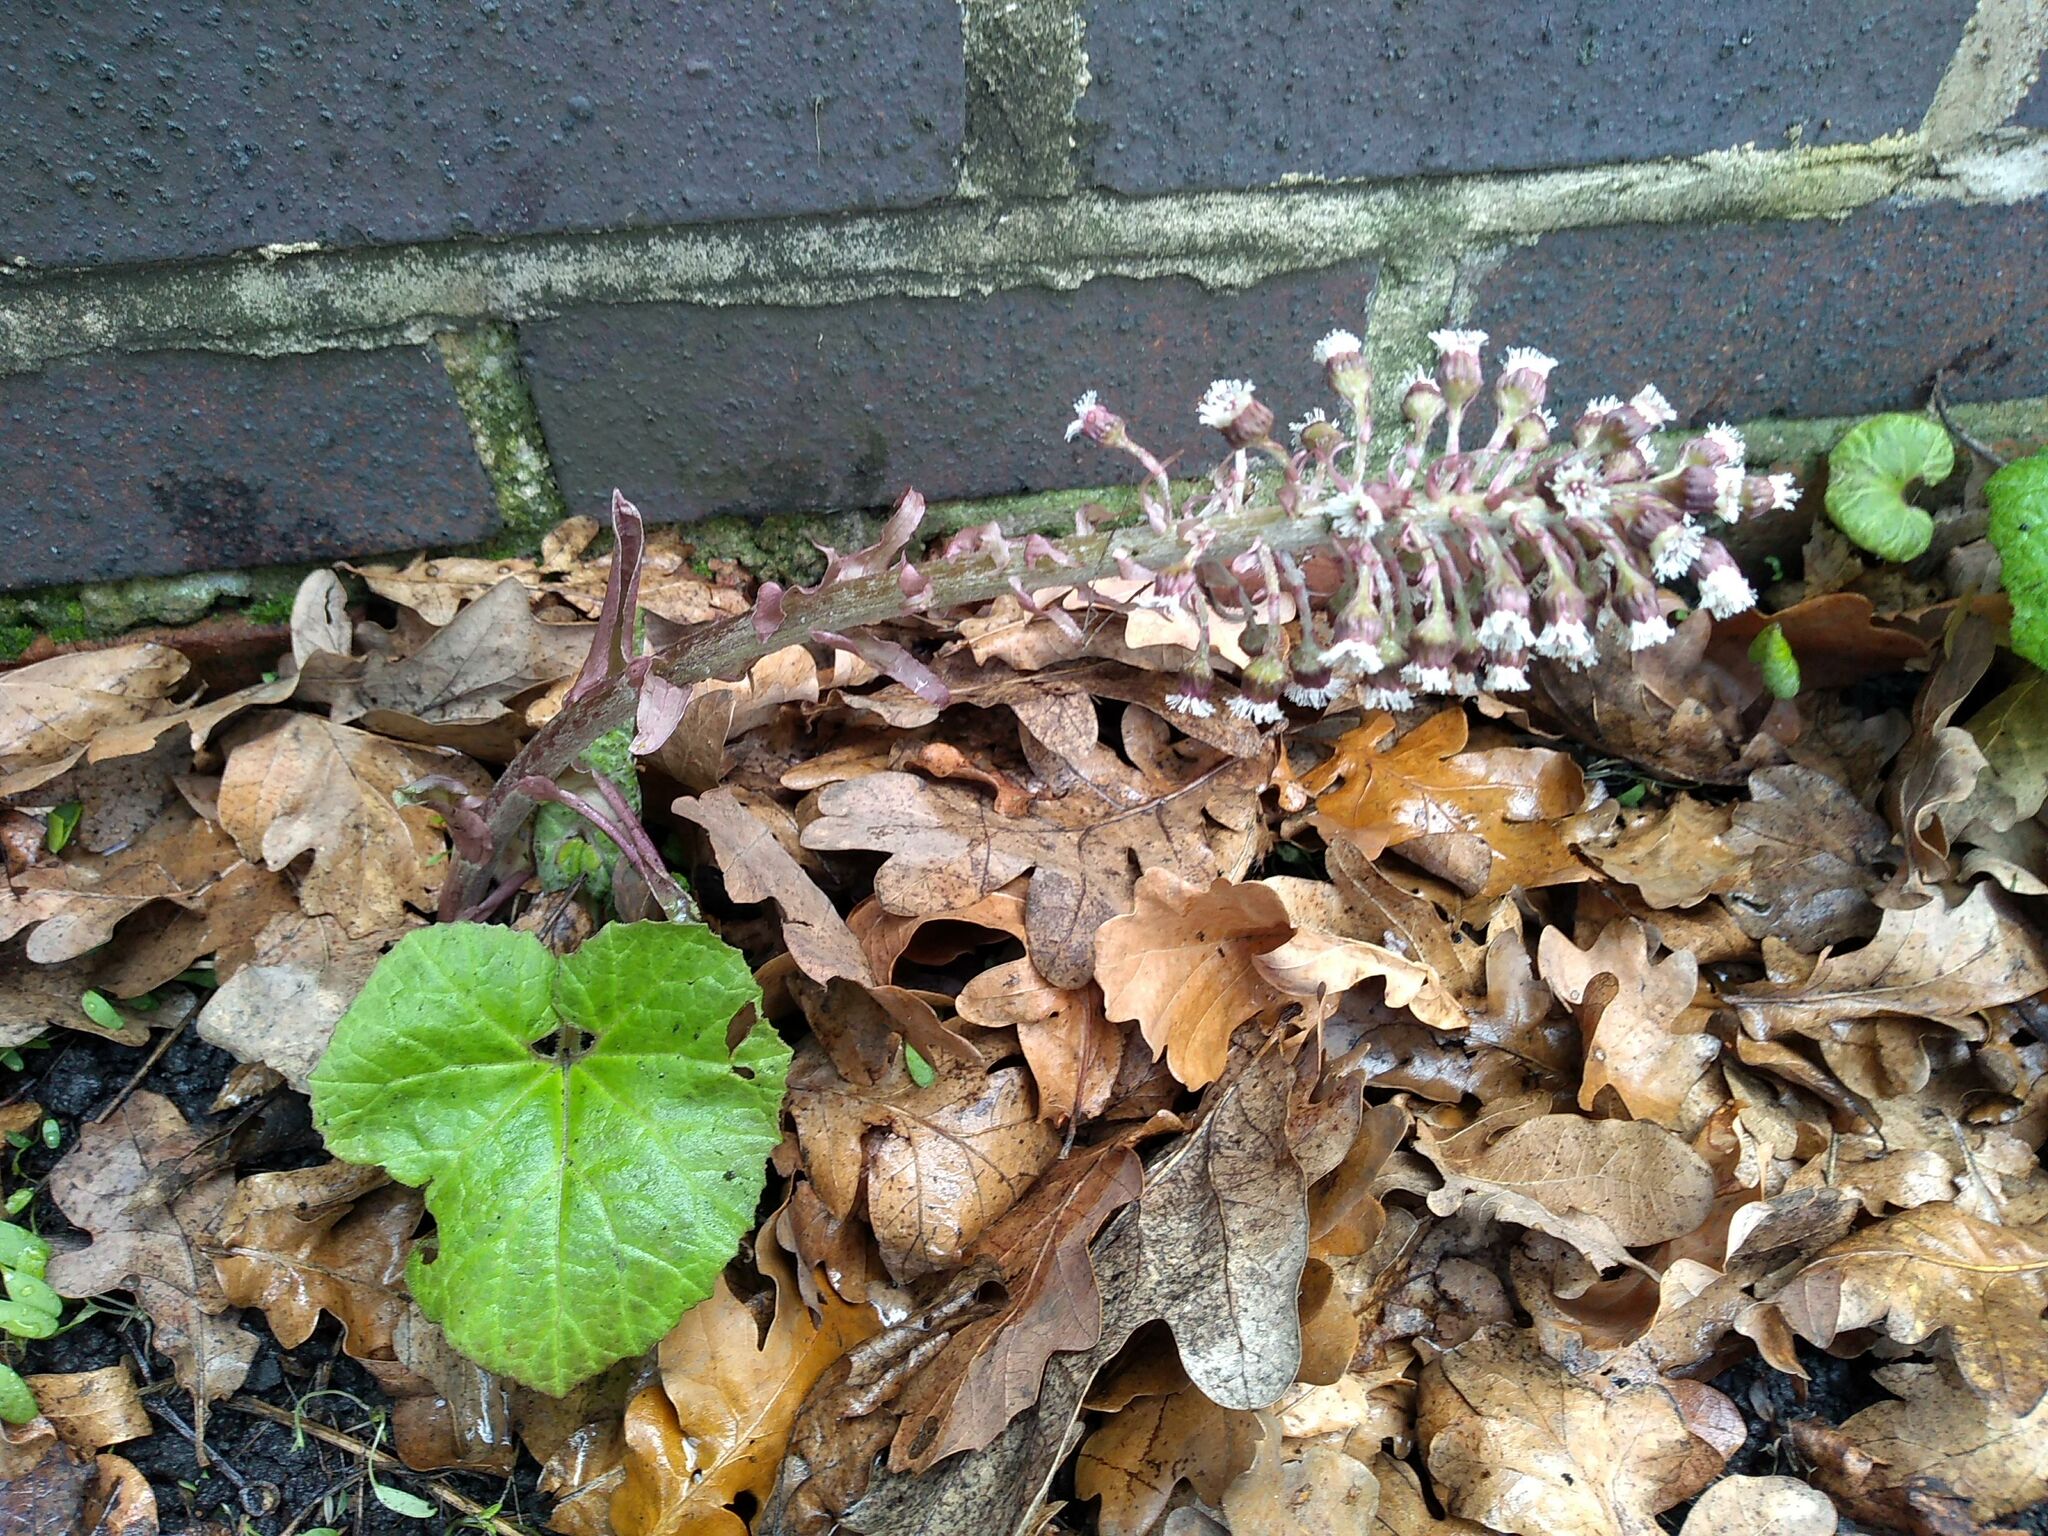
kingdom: Plantae
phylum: Tracheophyta
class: Magnoliopsida
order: Asterales
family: Asteraceae
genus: Petasites
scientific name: Petasites hybridus
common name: Butterbur
